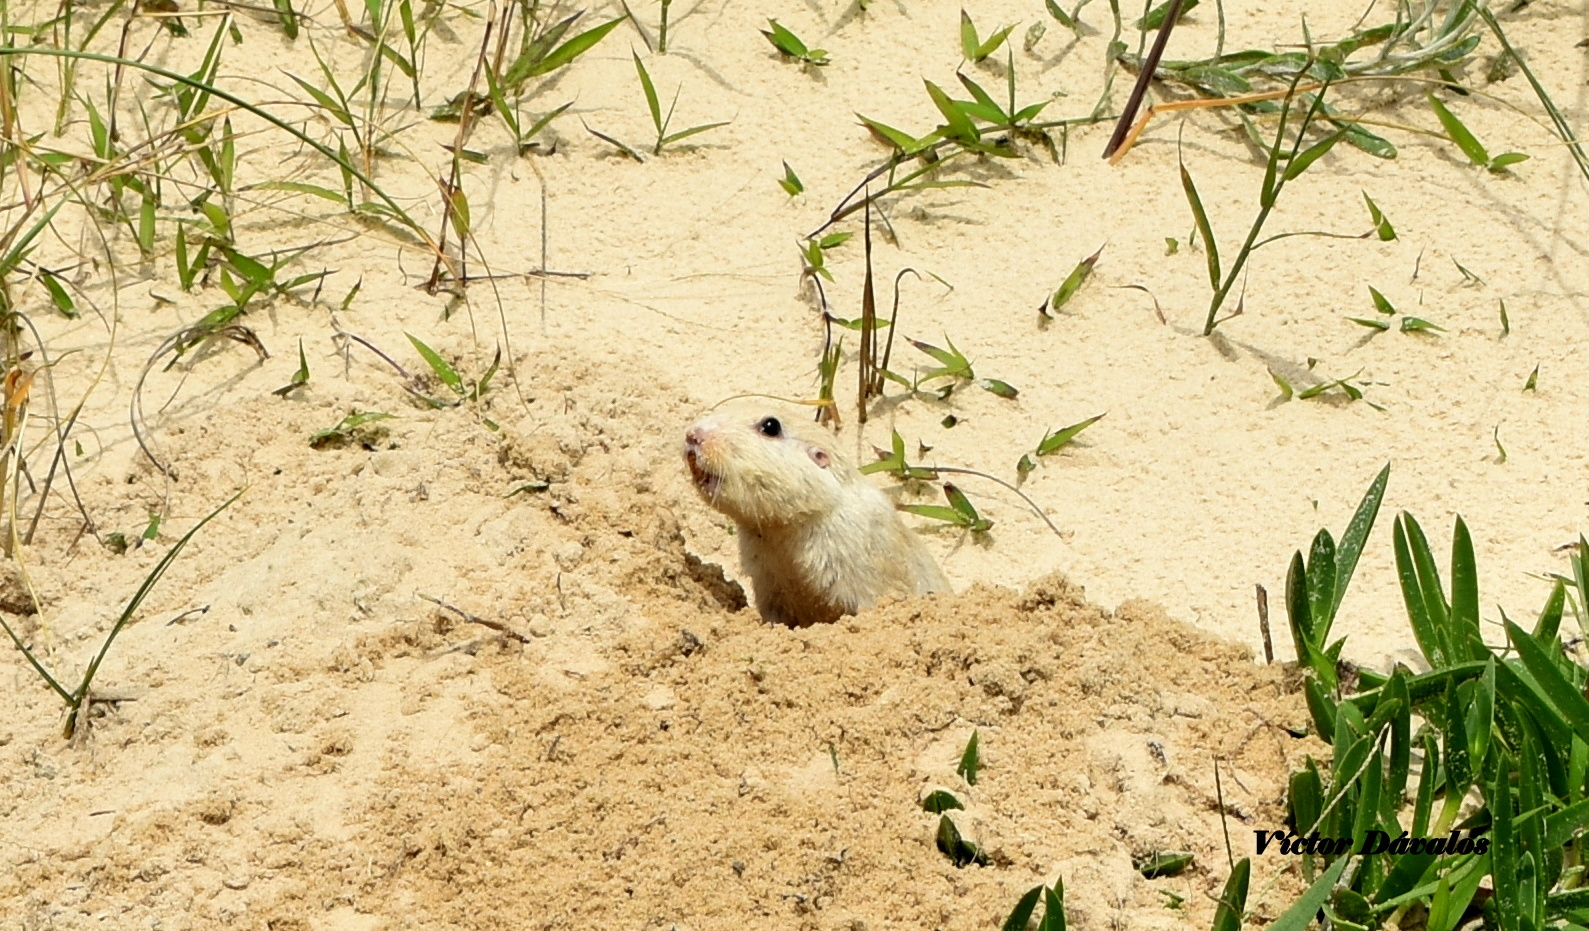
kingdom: Animalia
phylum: Chordata
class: Mammalia
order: Rodentia
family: Ctenomyidae
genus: Ctenomys
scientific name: Ctenomys flamarioni
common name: Tuco-tuco of the dunes
